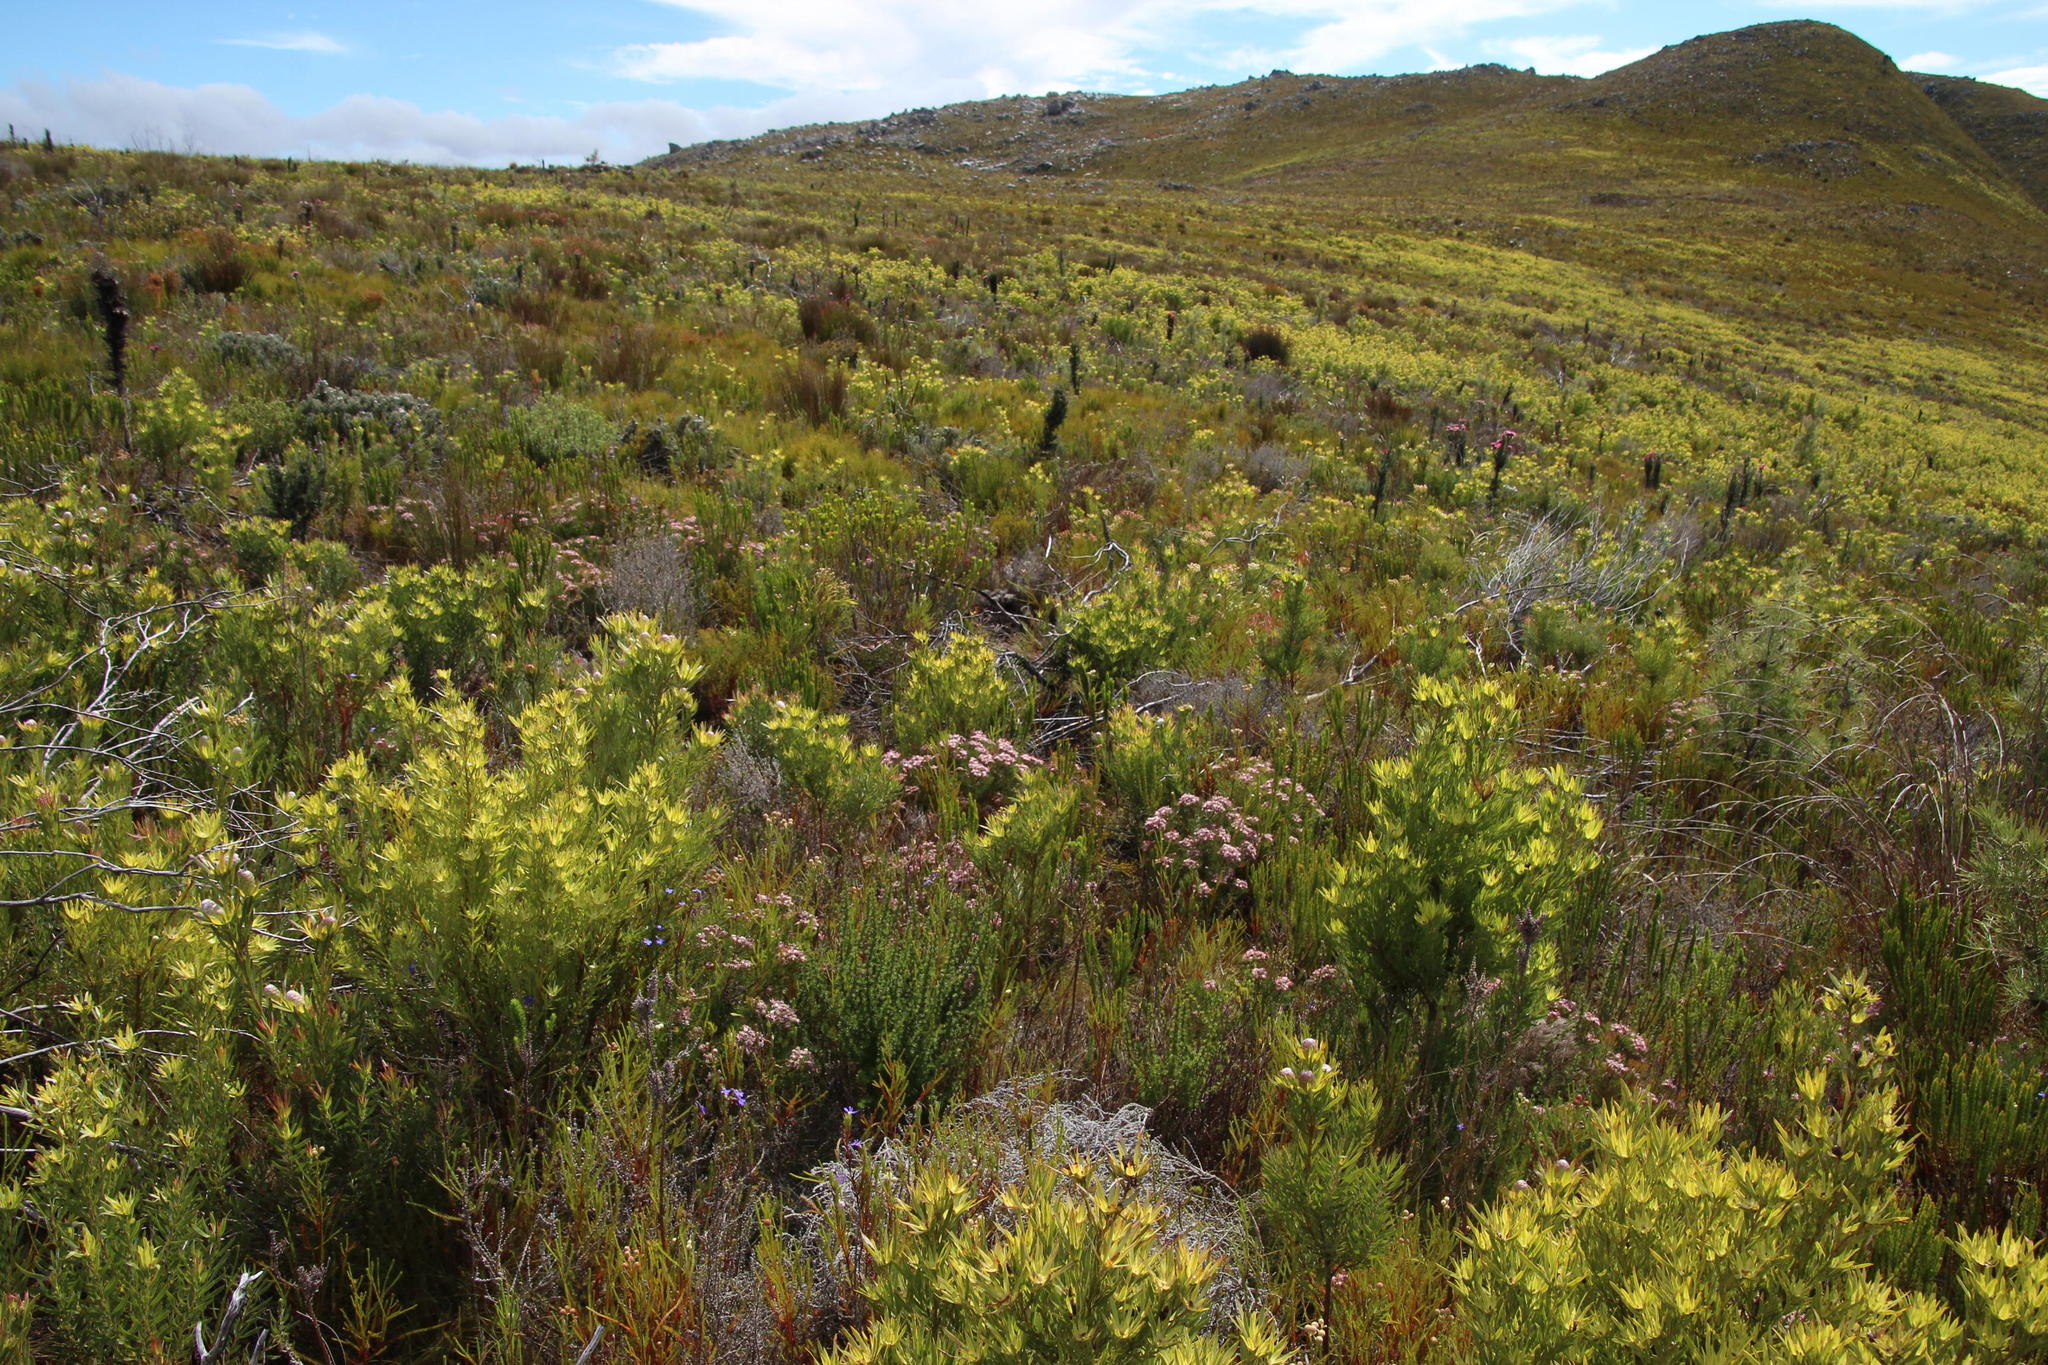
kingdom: Plantae
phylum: Tracheophyta
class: Magnoliopsida
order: Proteales
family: Proteaceae
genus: Serruria
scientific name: Serruria fasciflora
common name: Common pin spiderhead
